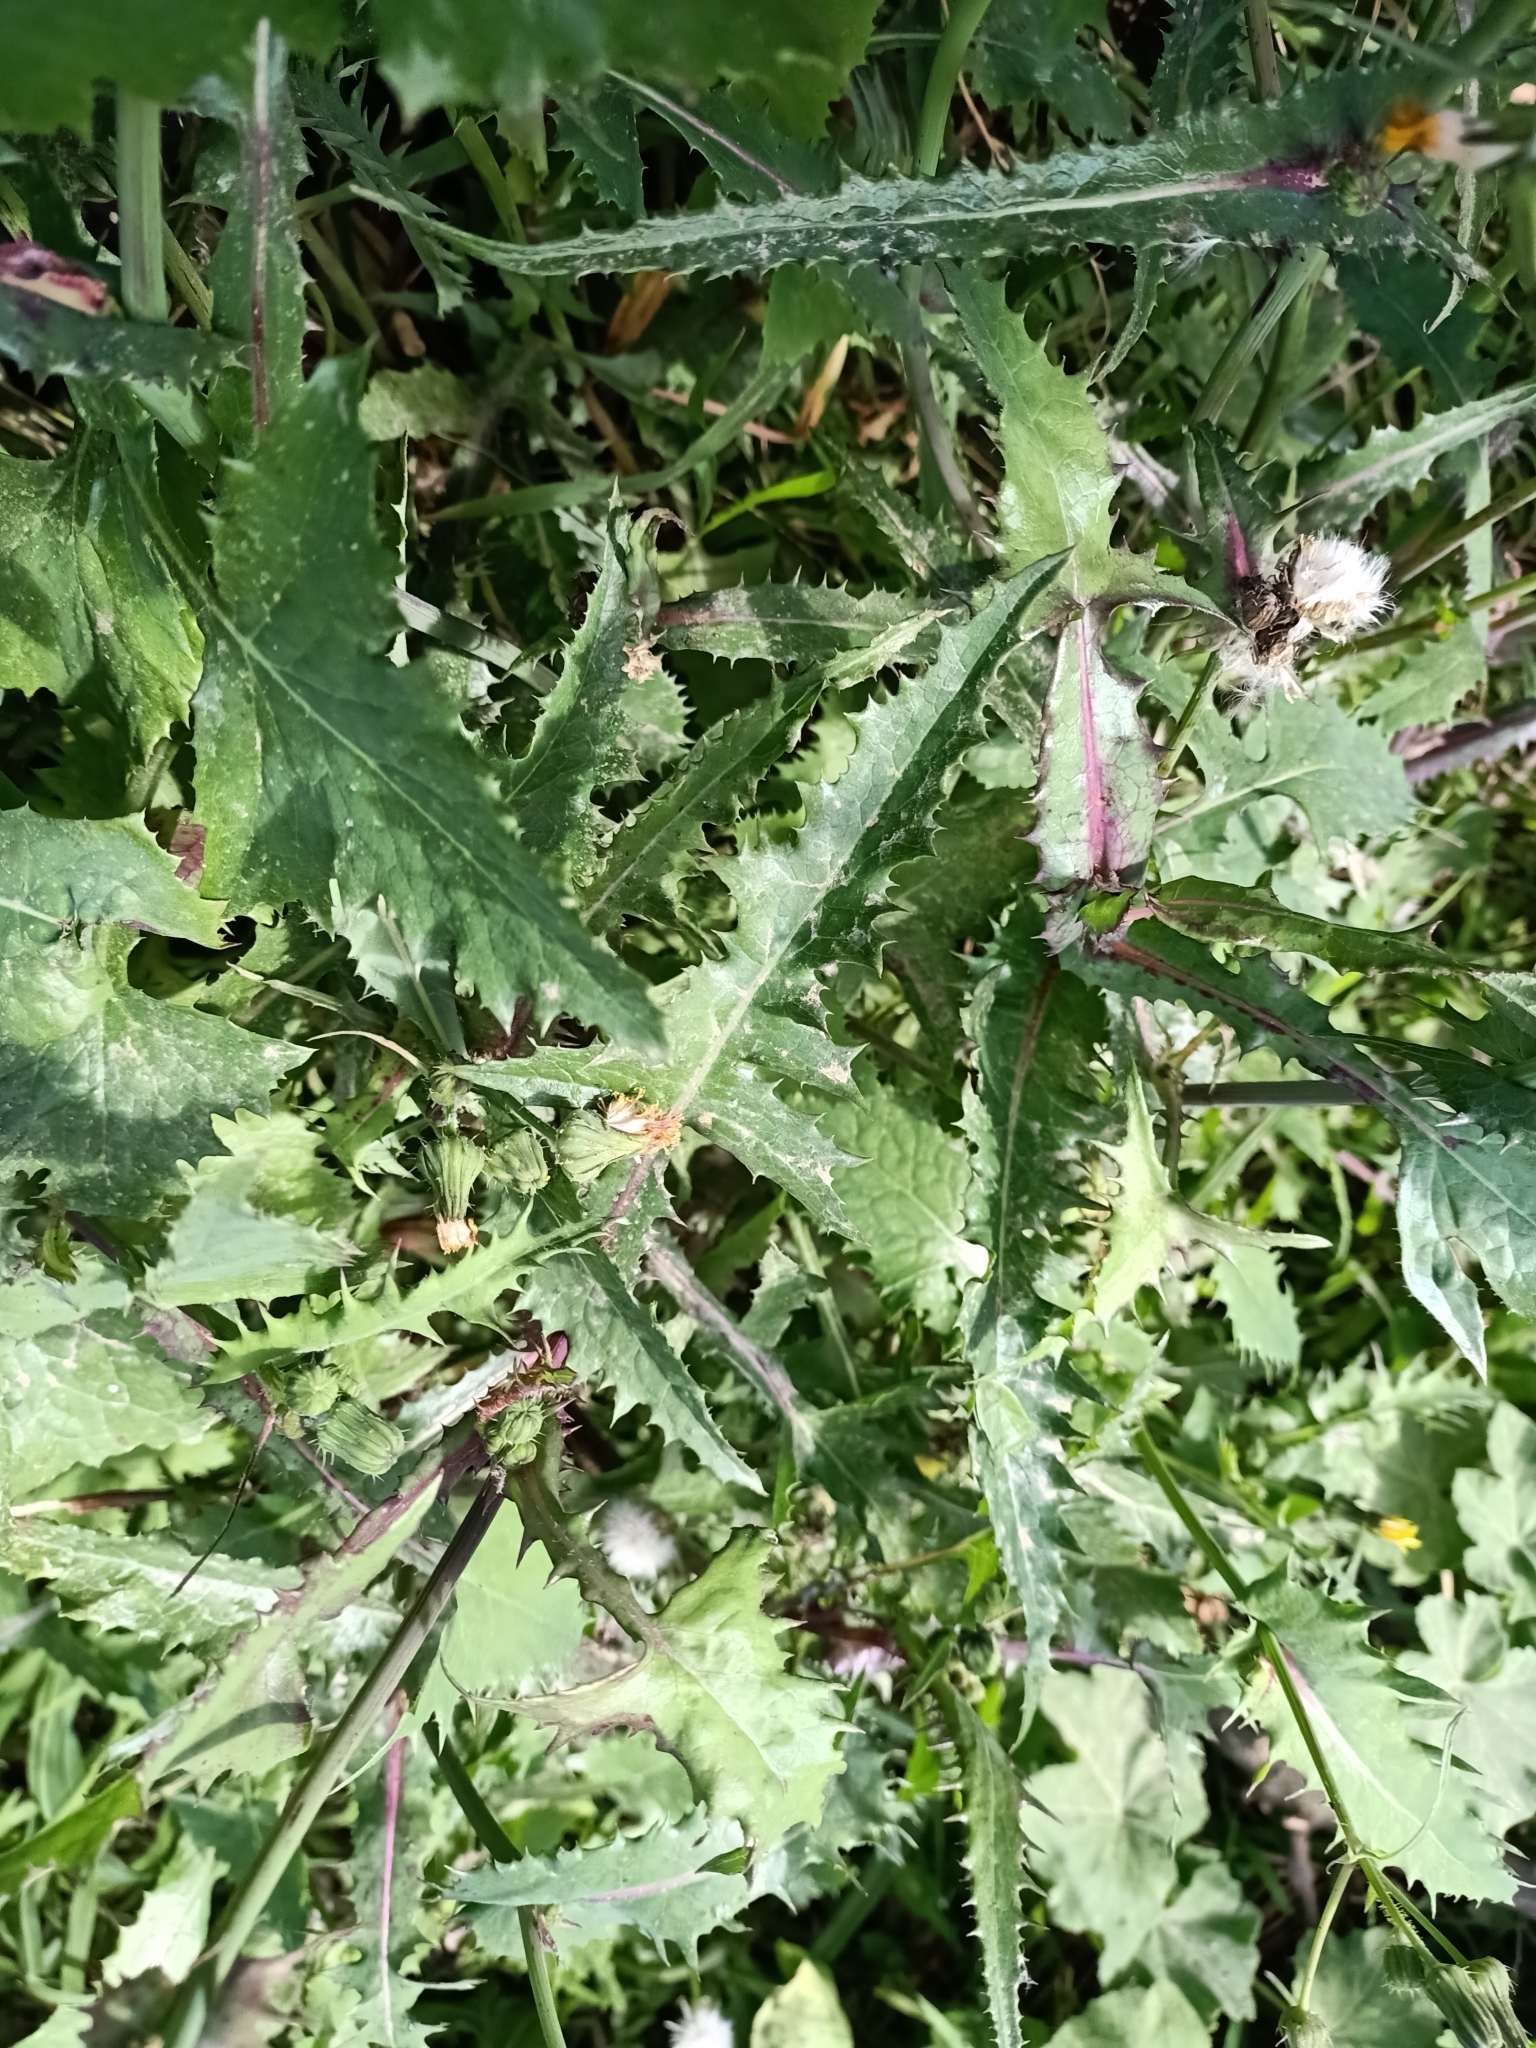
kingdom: Plantae
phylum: Tracheophyta
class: Magnoliopsida
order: Asterales
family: Asteraceae
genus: Sonchus
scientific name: Sonchus oleraceus
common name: Common sowthistle
